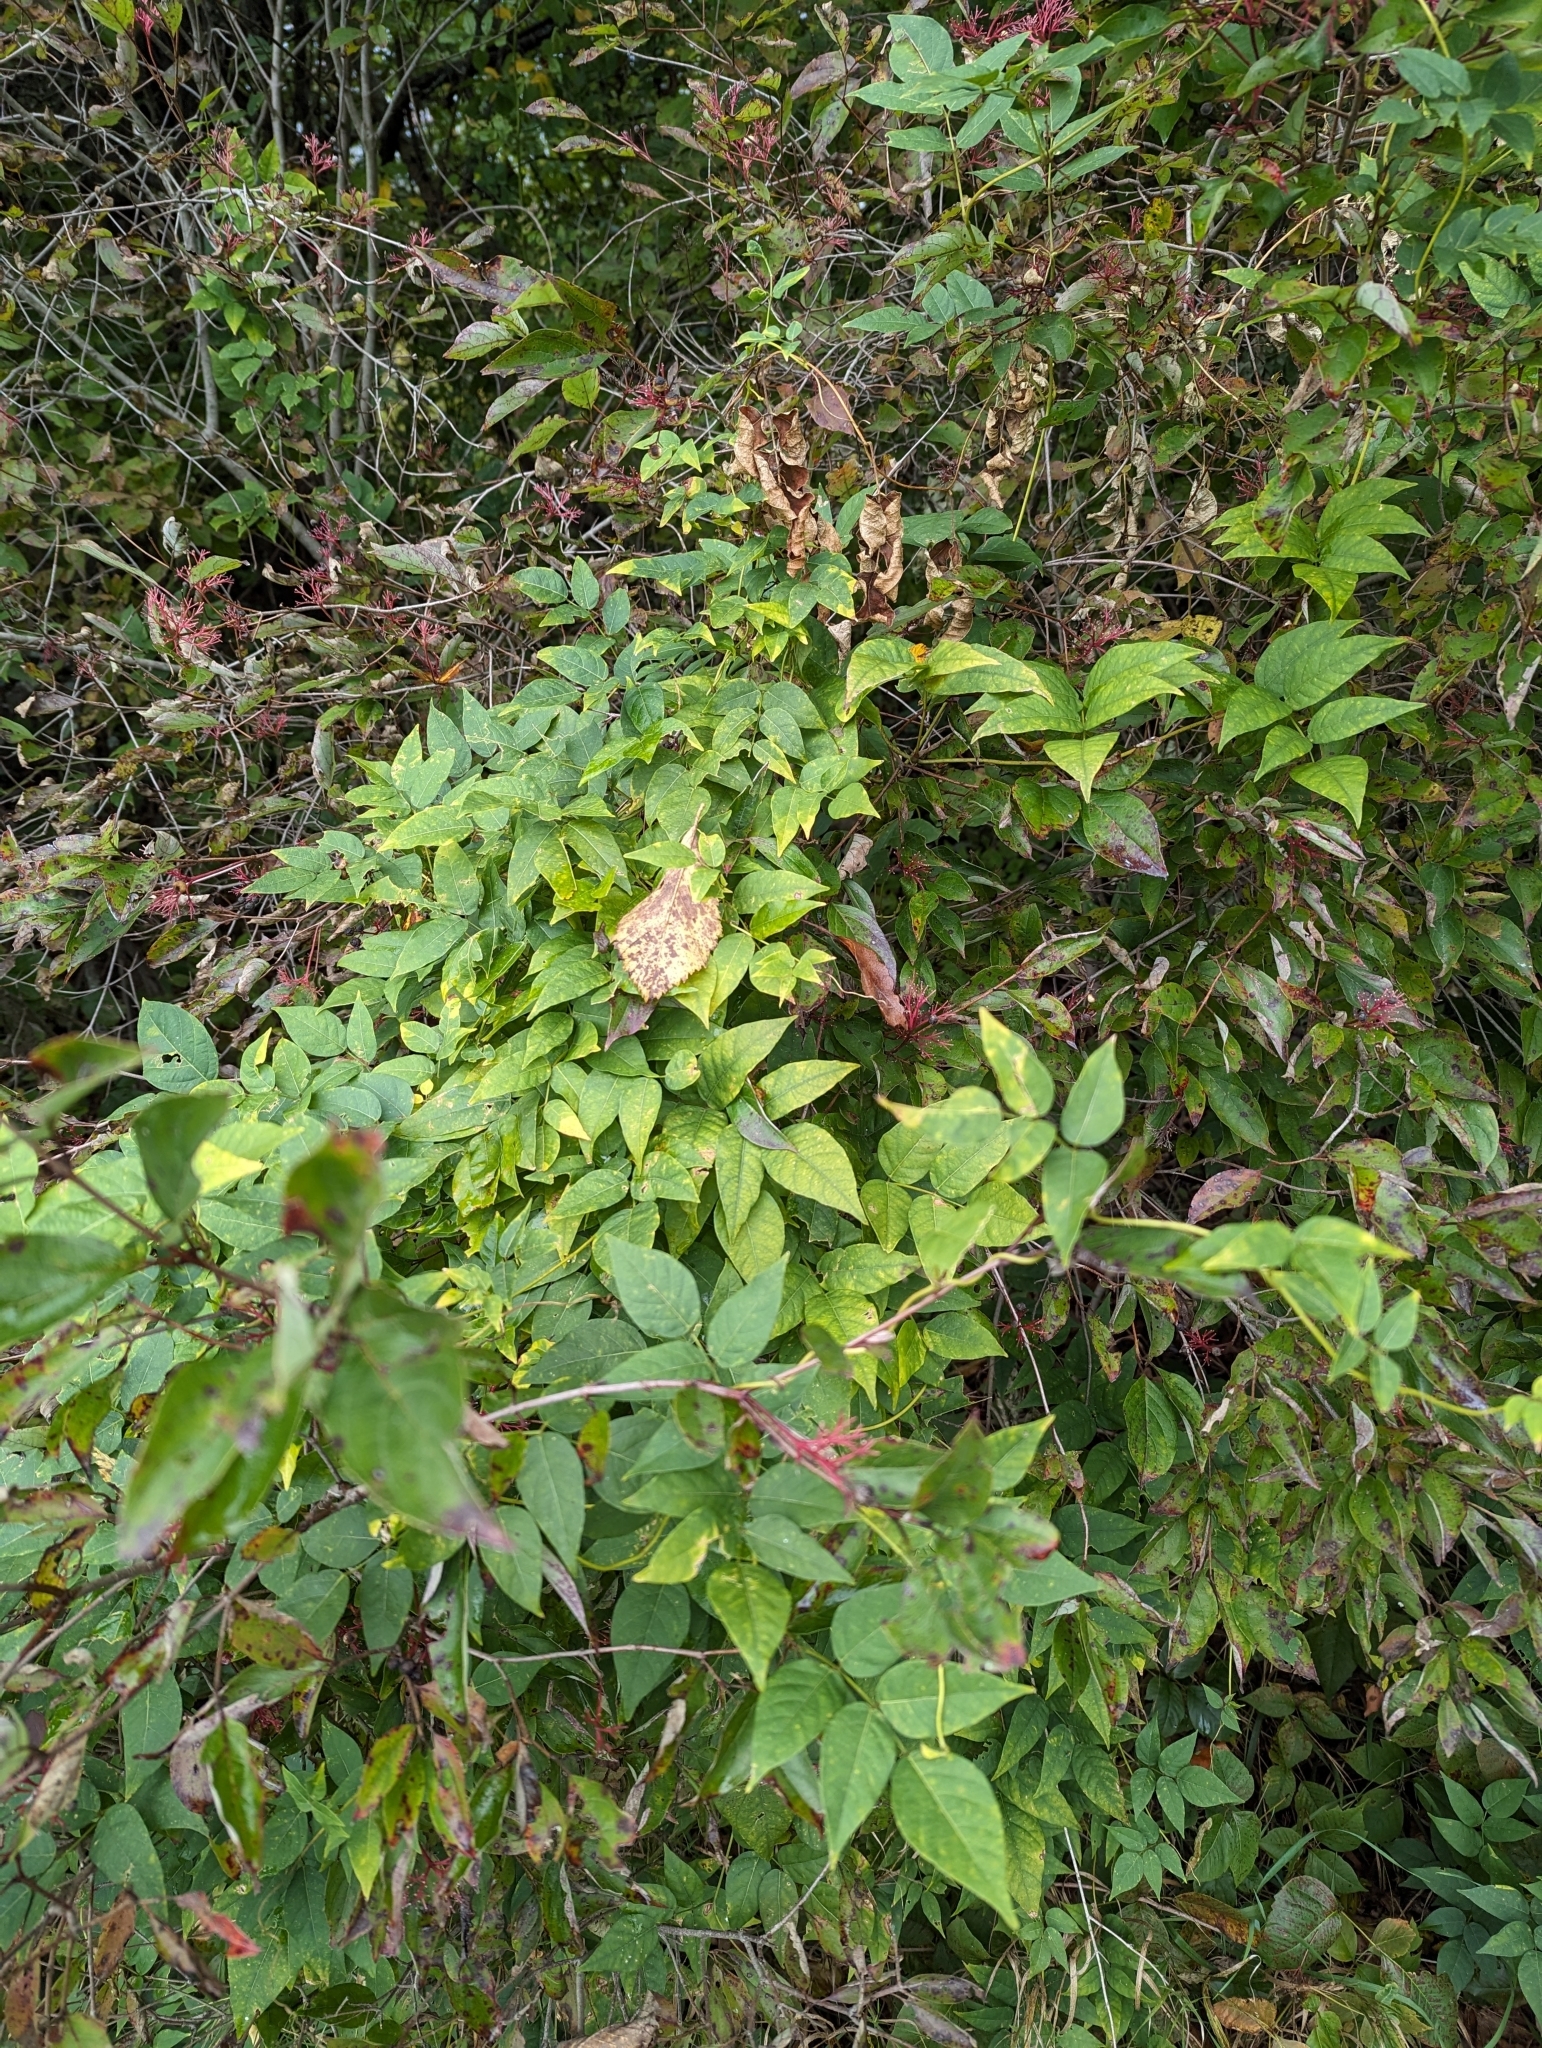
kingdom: Plantae
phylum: Tracheophyta
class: Magnoliopsida
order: Fabales
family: Fabaceae
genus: Apios
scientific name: Apios americana
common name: American potato-bean
